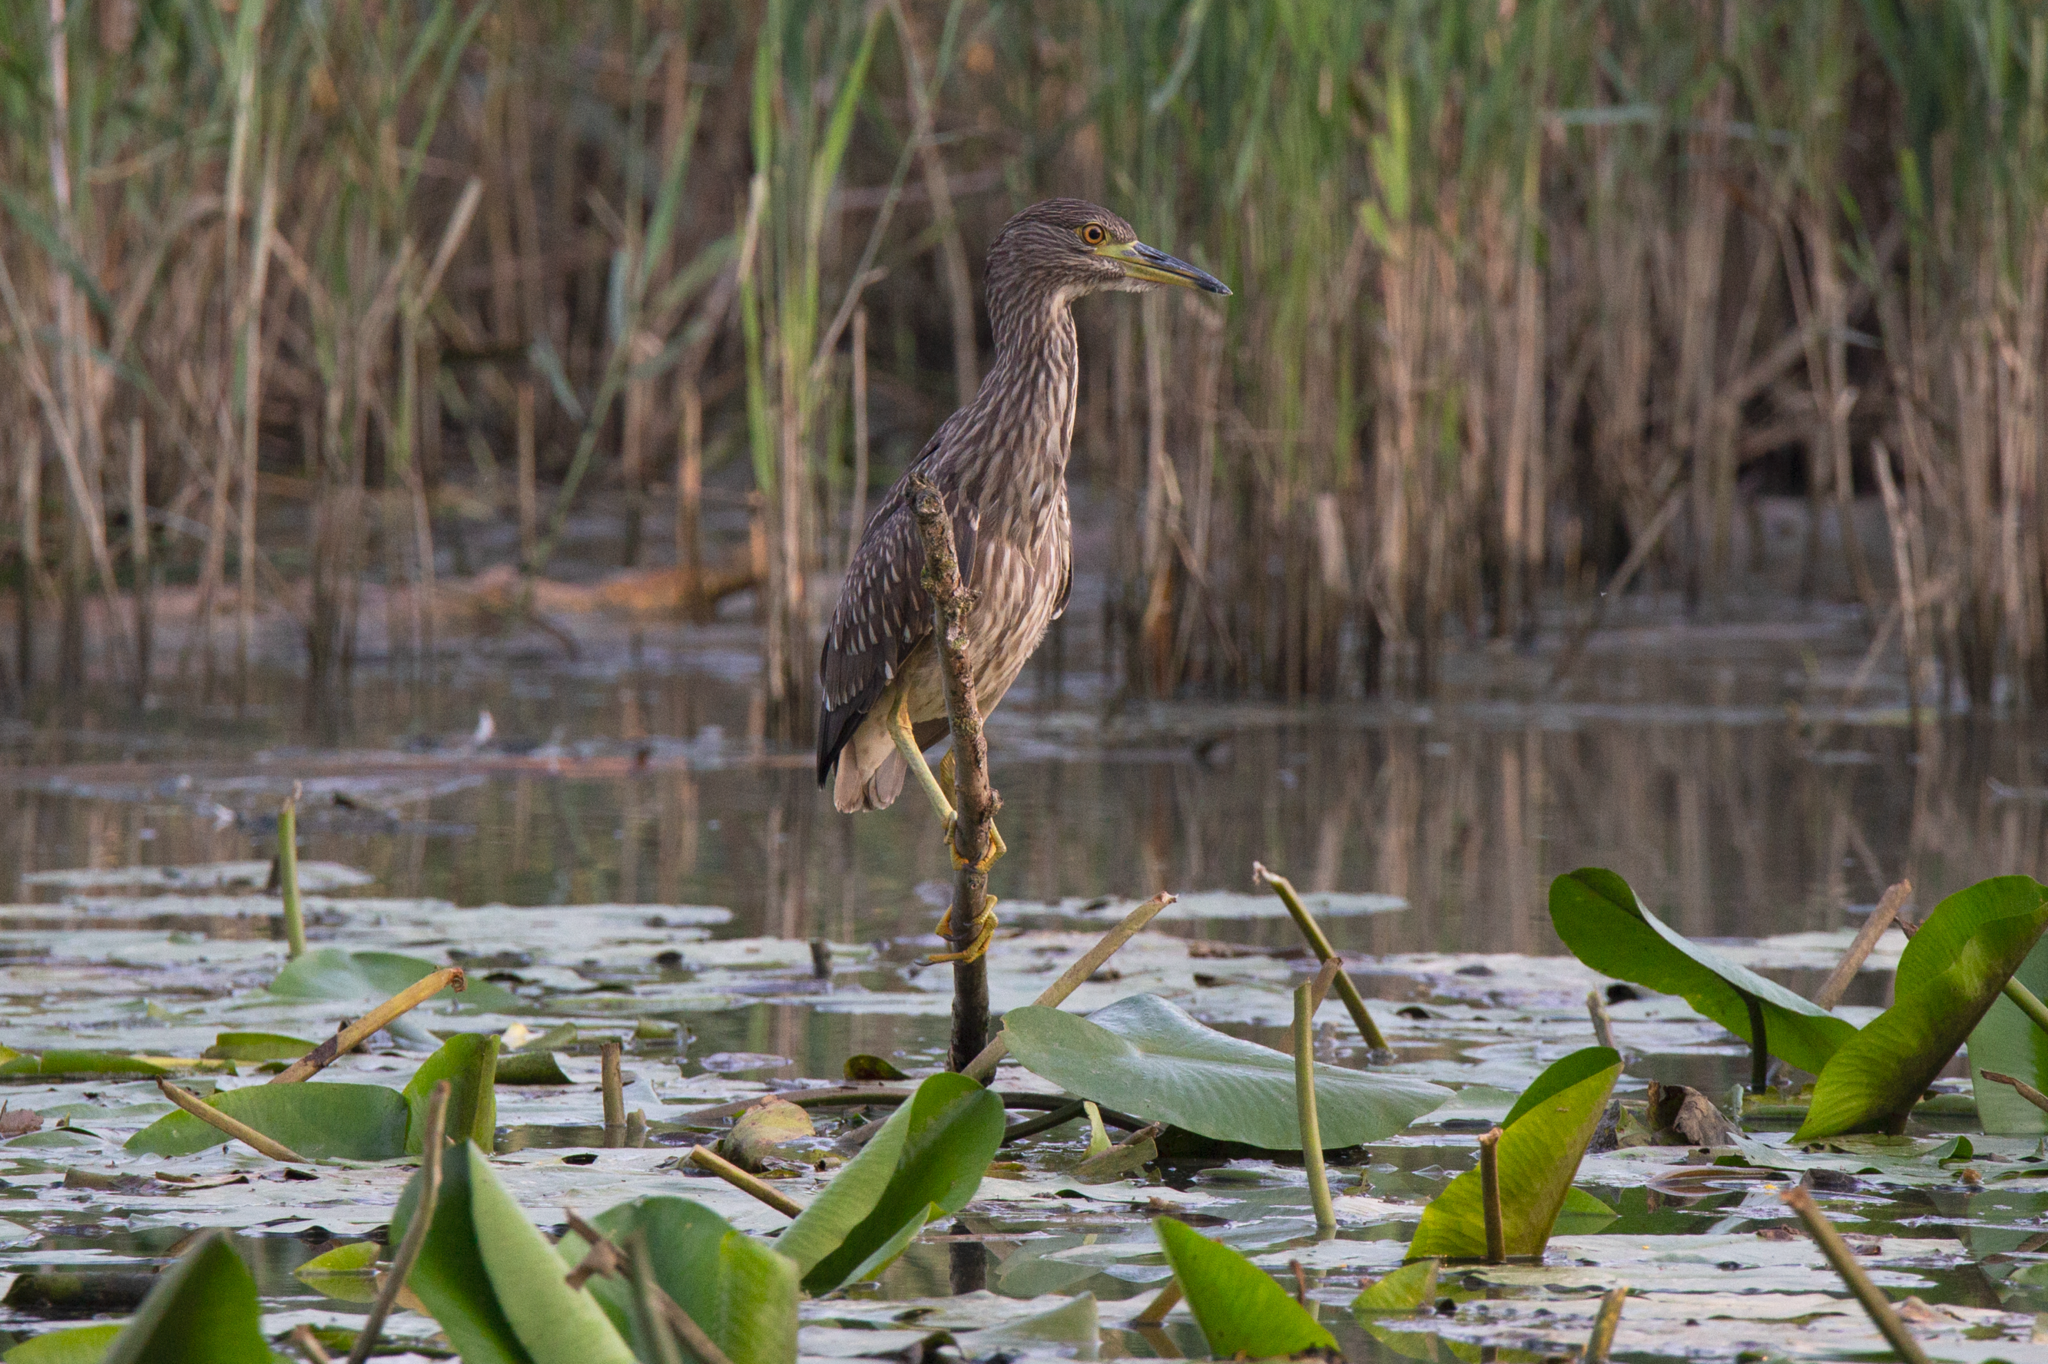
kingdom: Animalia
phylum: Chordata
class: Aves
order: Pelecaniformes
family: Ardeidae
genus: Nycticorax
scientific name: Nycticorax nycticorax
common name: Black-crowned night heron
